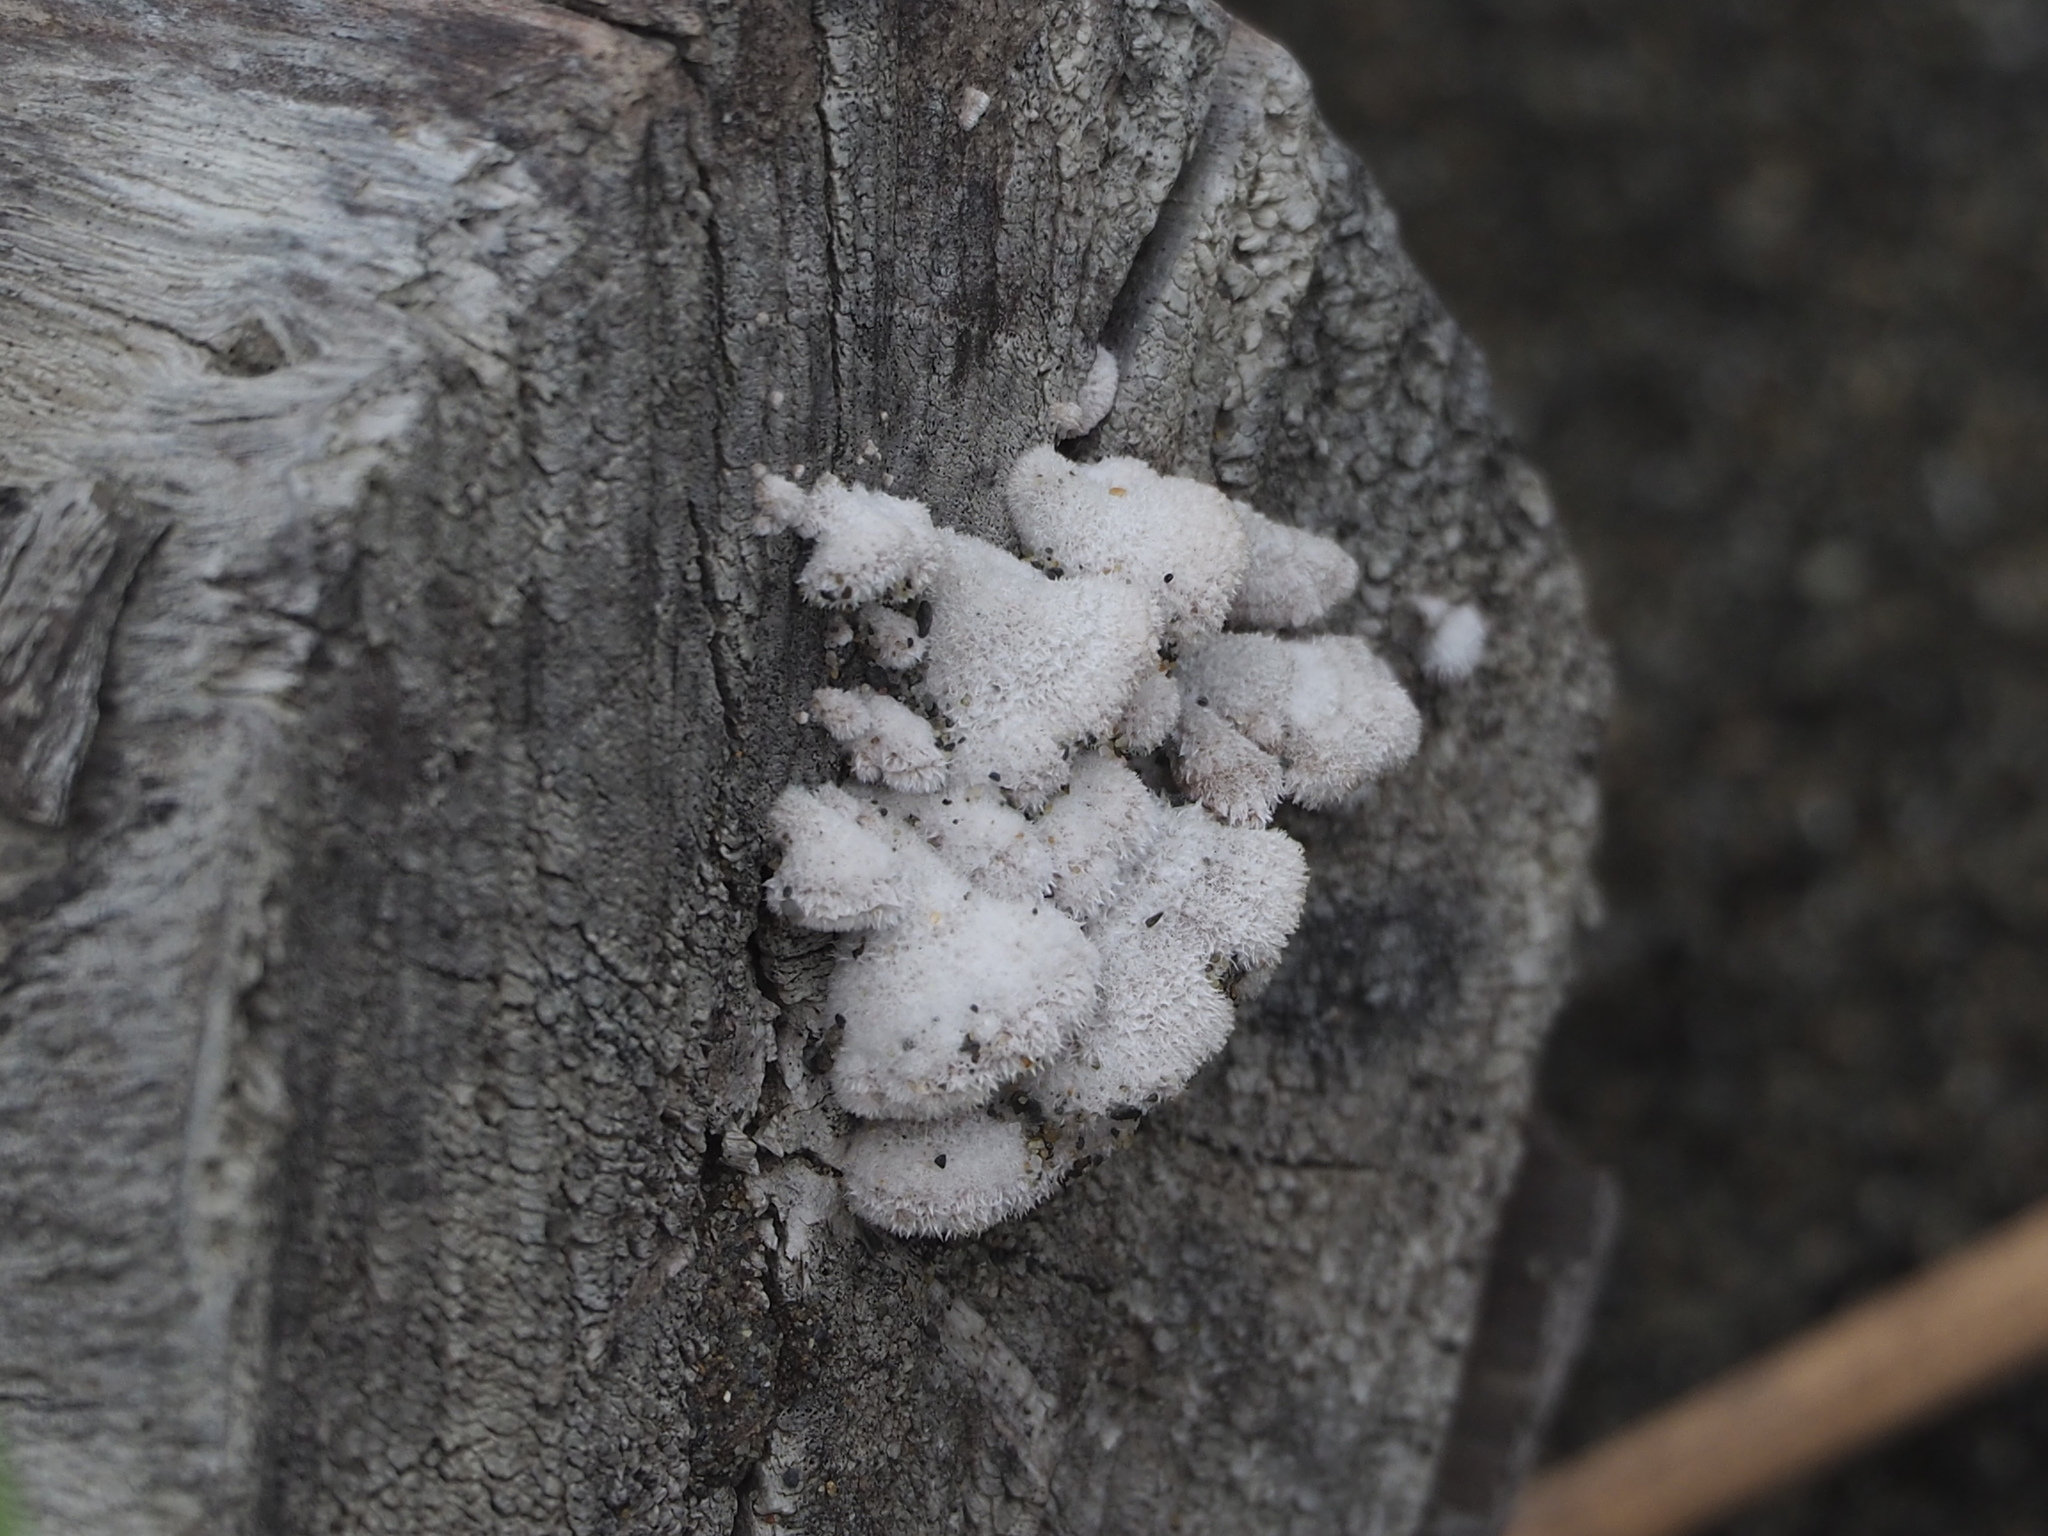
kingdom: Fungi
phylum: Basidiomycota
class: Agaricomycetes
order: Agaricales
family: Schizophyllaceae
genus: Schizophyllum
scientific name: Schizophyllum commune
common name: Common porecrust
